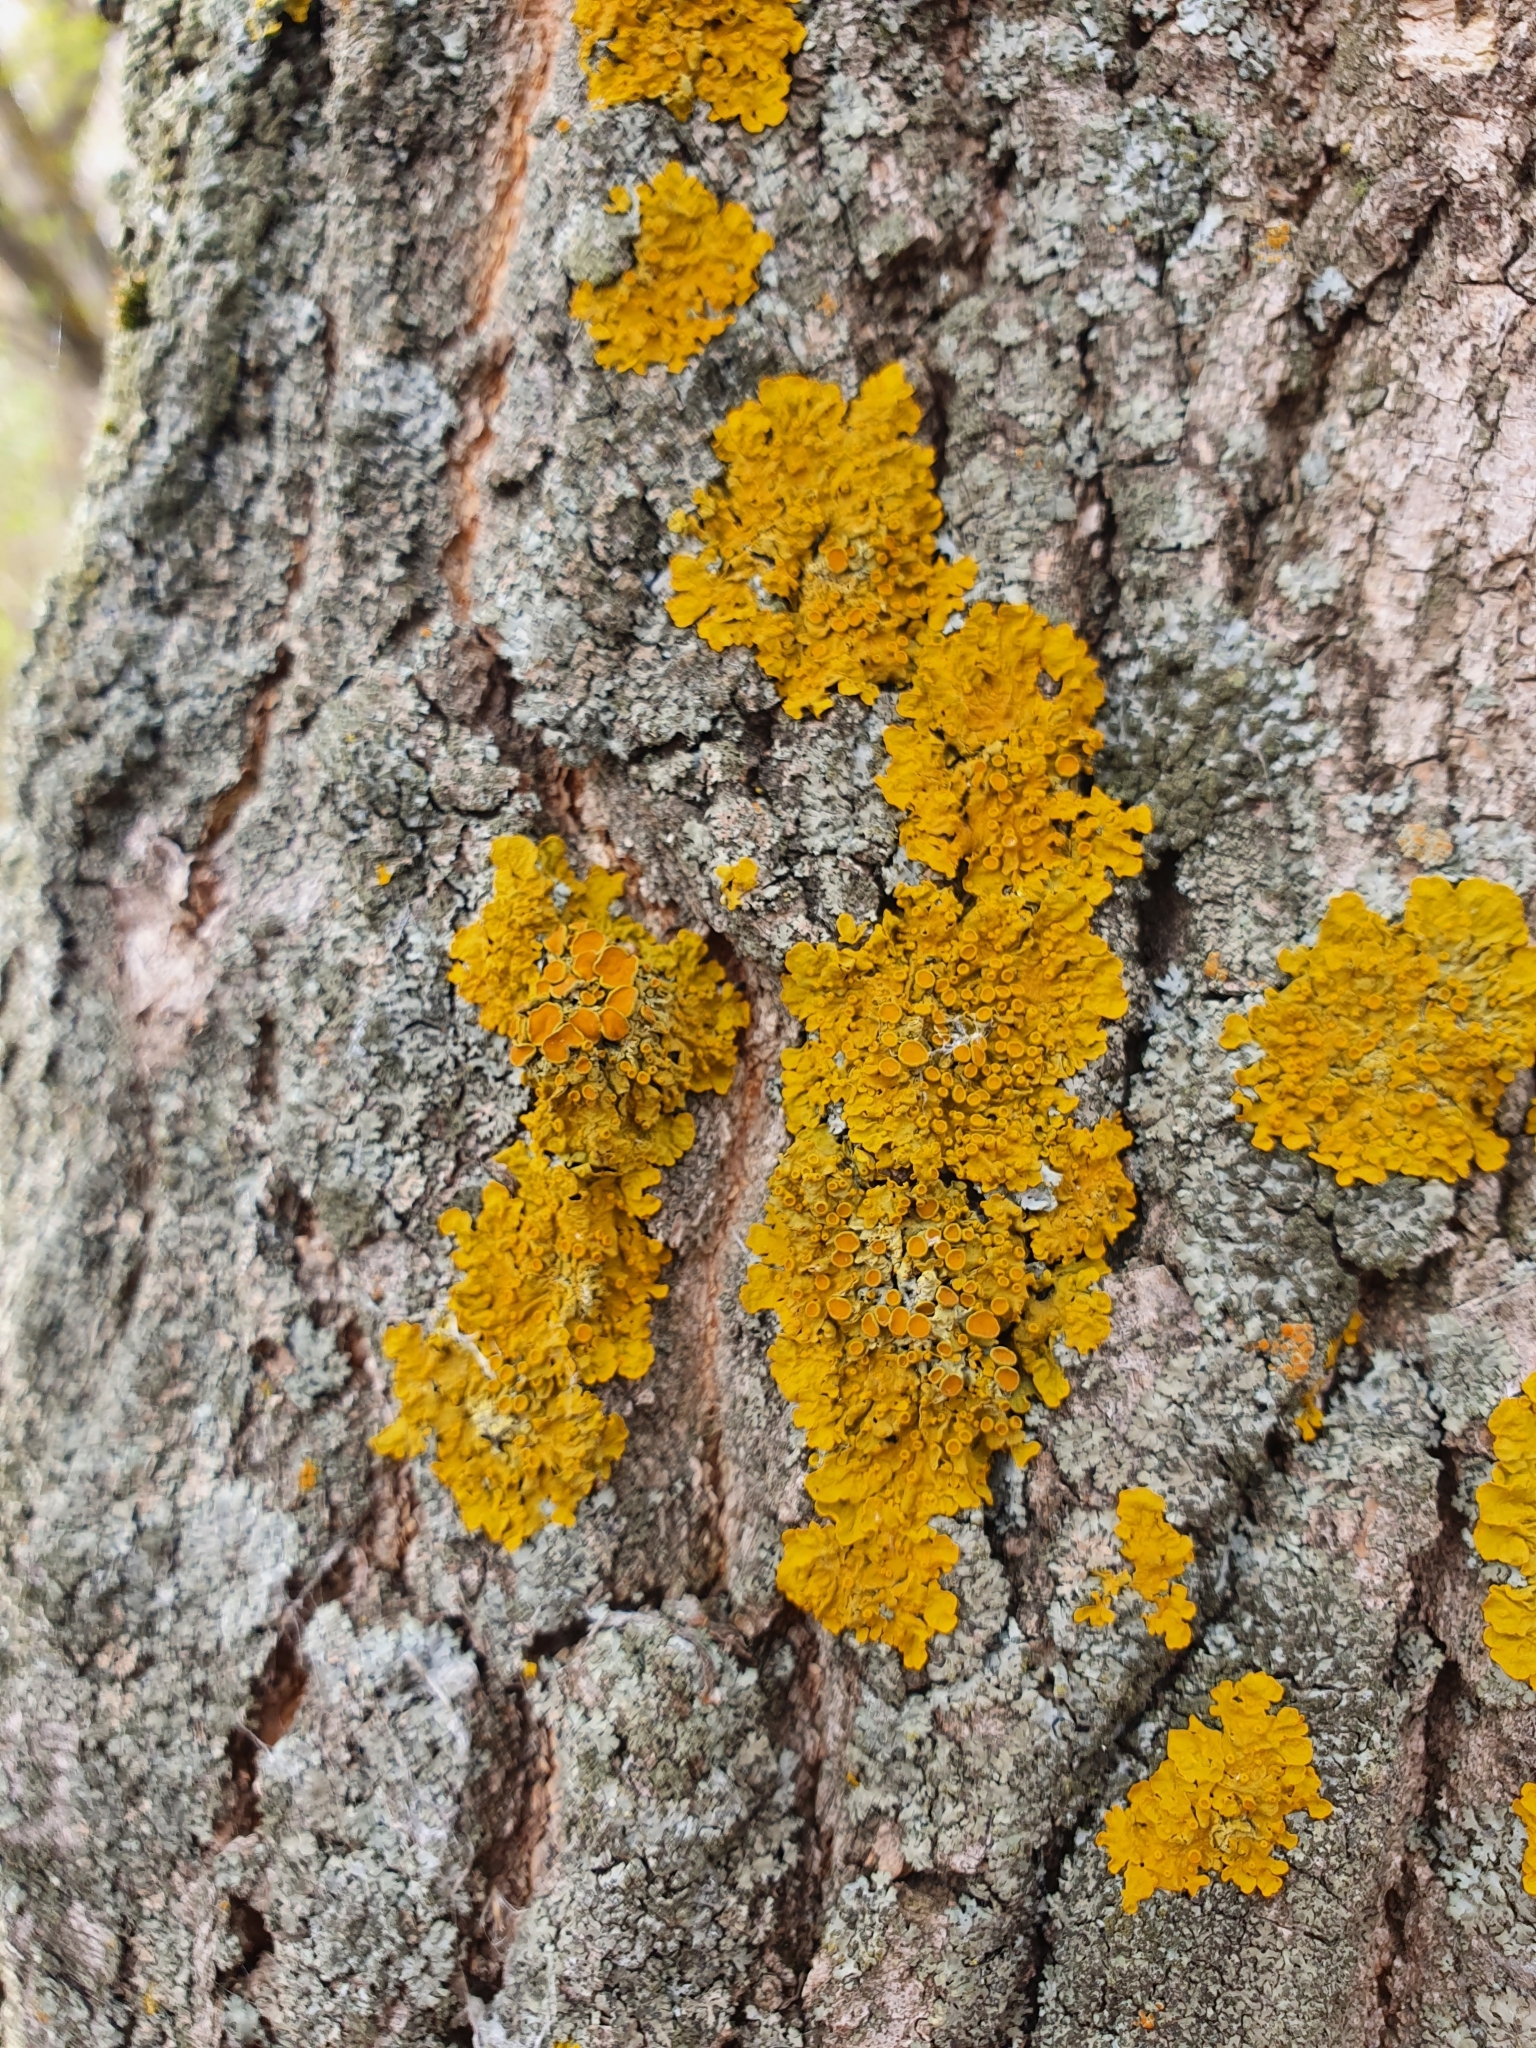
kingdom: Fungi
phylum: Ascomycota
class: Lecanoromycetes
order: Teloschistales
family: Teloschistaceae
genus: Xanthoria
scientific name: Xanthoria parietina
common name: Common orange lichen
